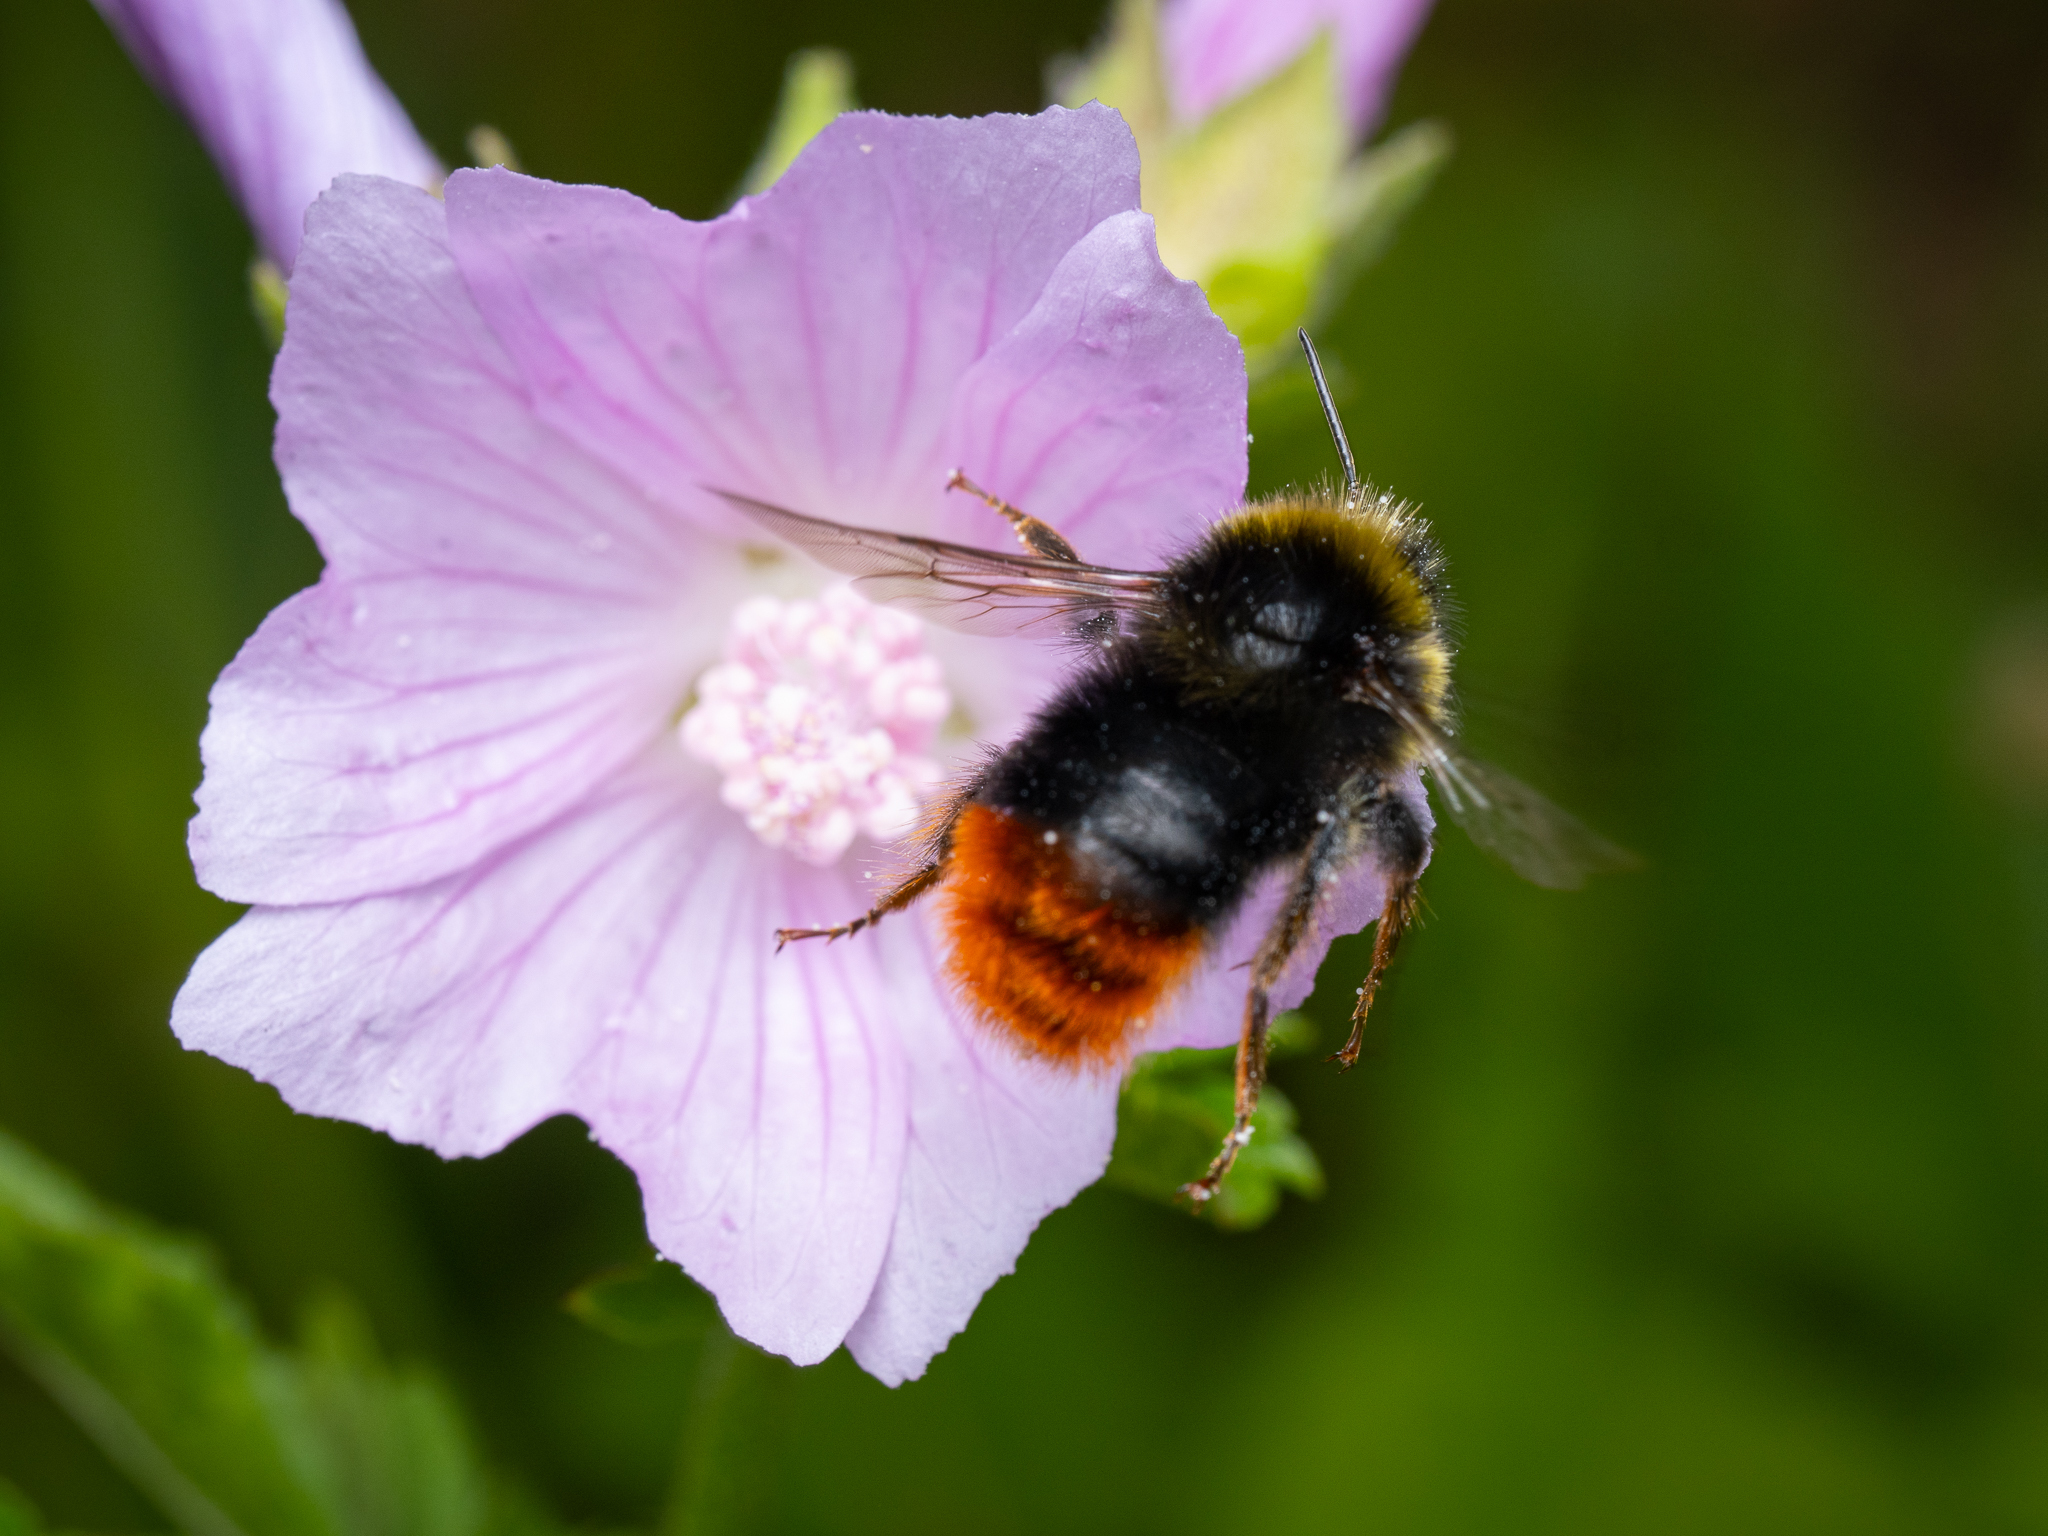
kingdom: Animalia
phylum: Arthropoda
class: Insecta
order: Hymenoptera
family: Apidae
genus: Bombus
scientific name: Bombus lapidarius
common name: Large red-tailed humble-bee
